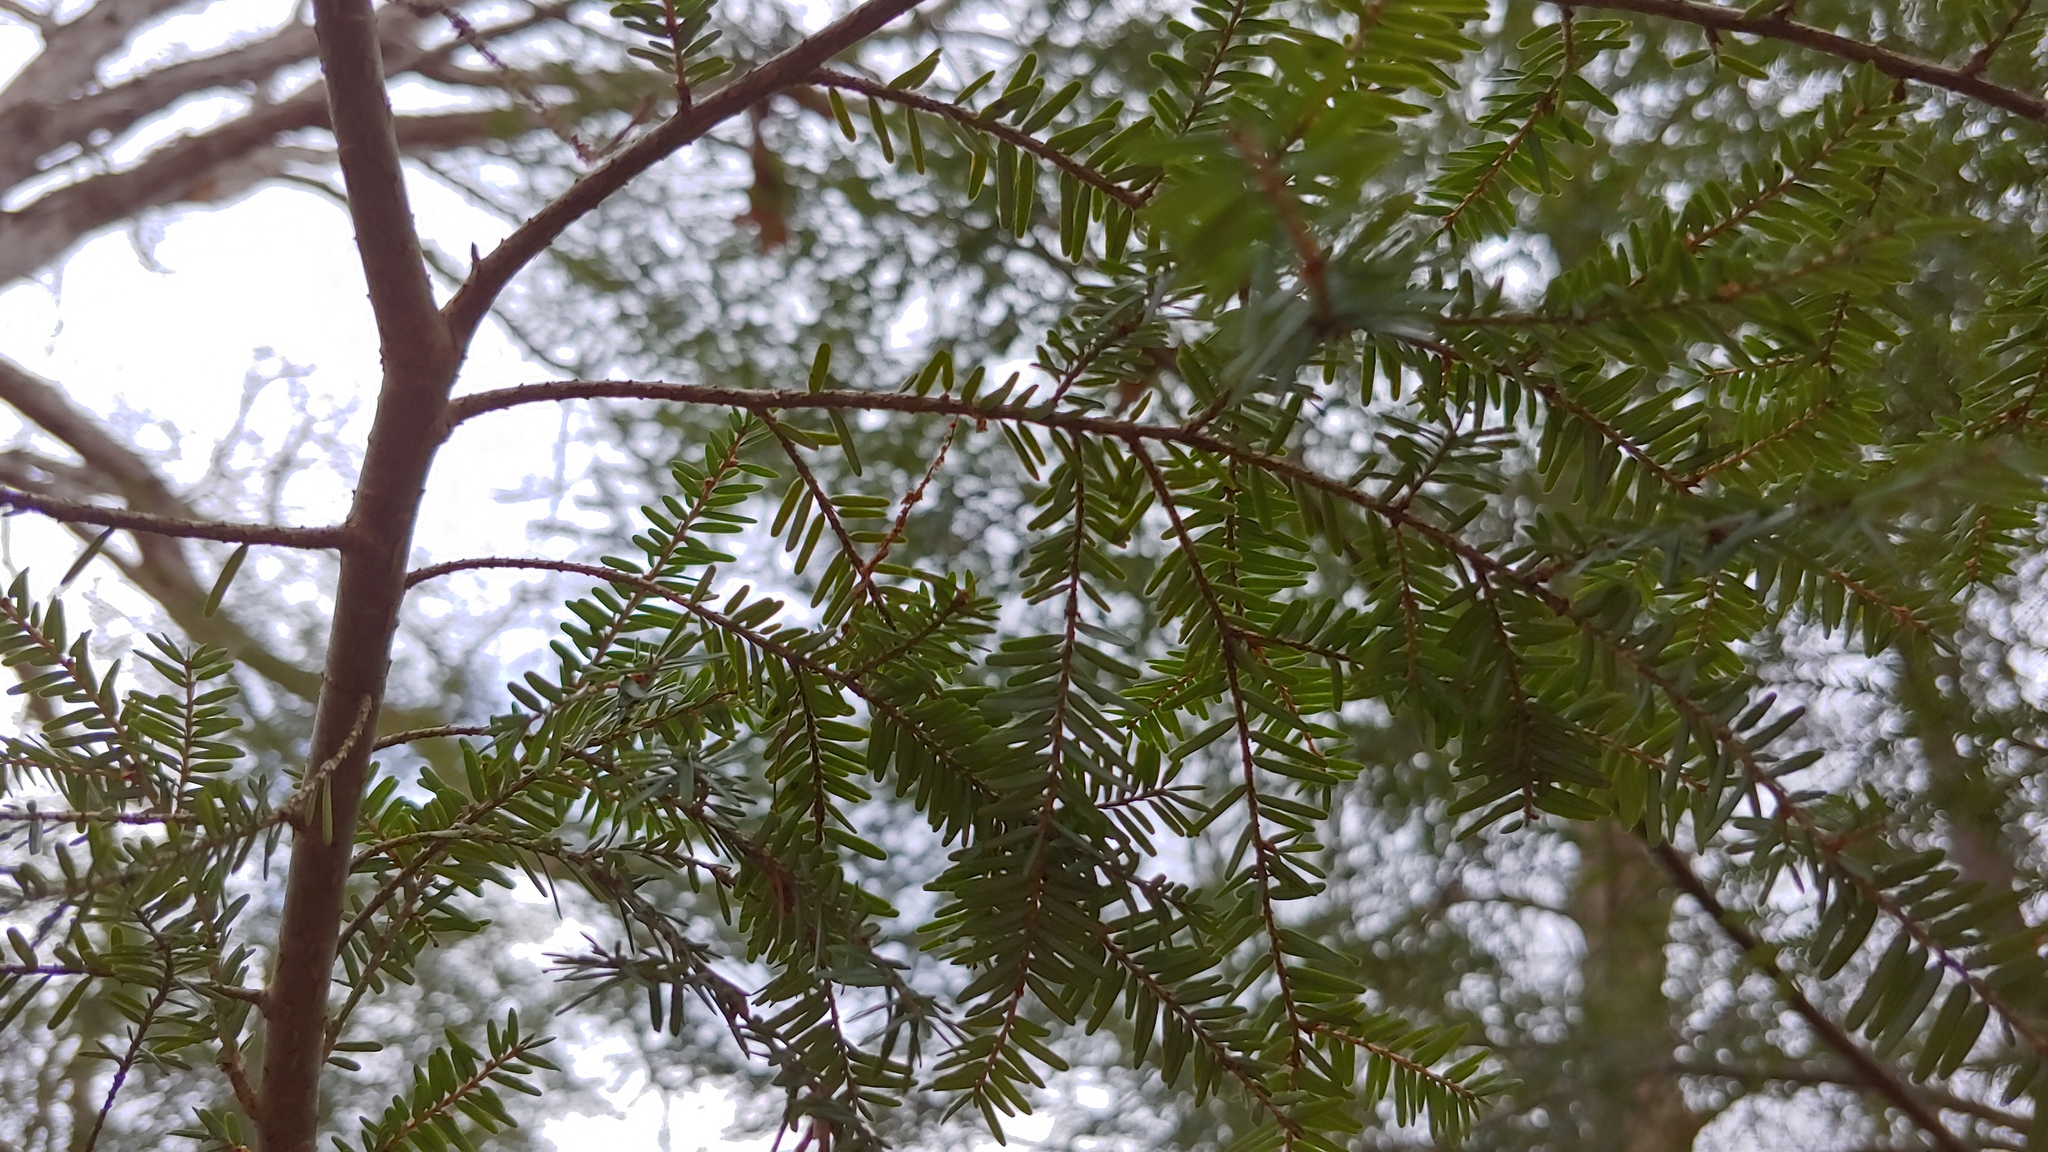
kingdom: Plantae
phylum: Tracheophyta
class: Pinopsida
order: Pinales
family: Pinaceae
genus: Tsuga
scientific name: Tsuga canadensis
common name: Eastern hemlock
